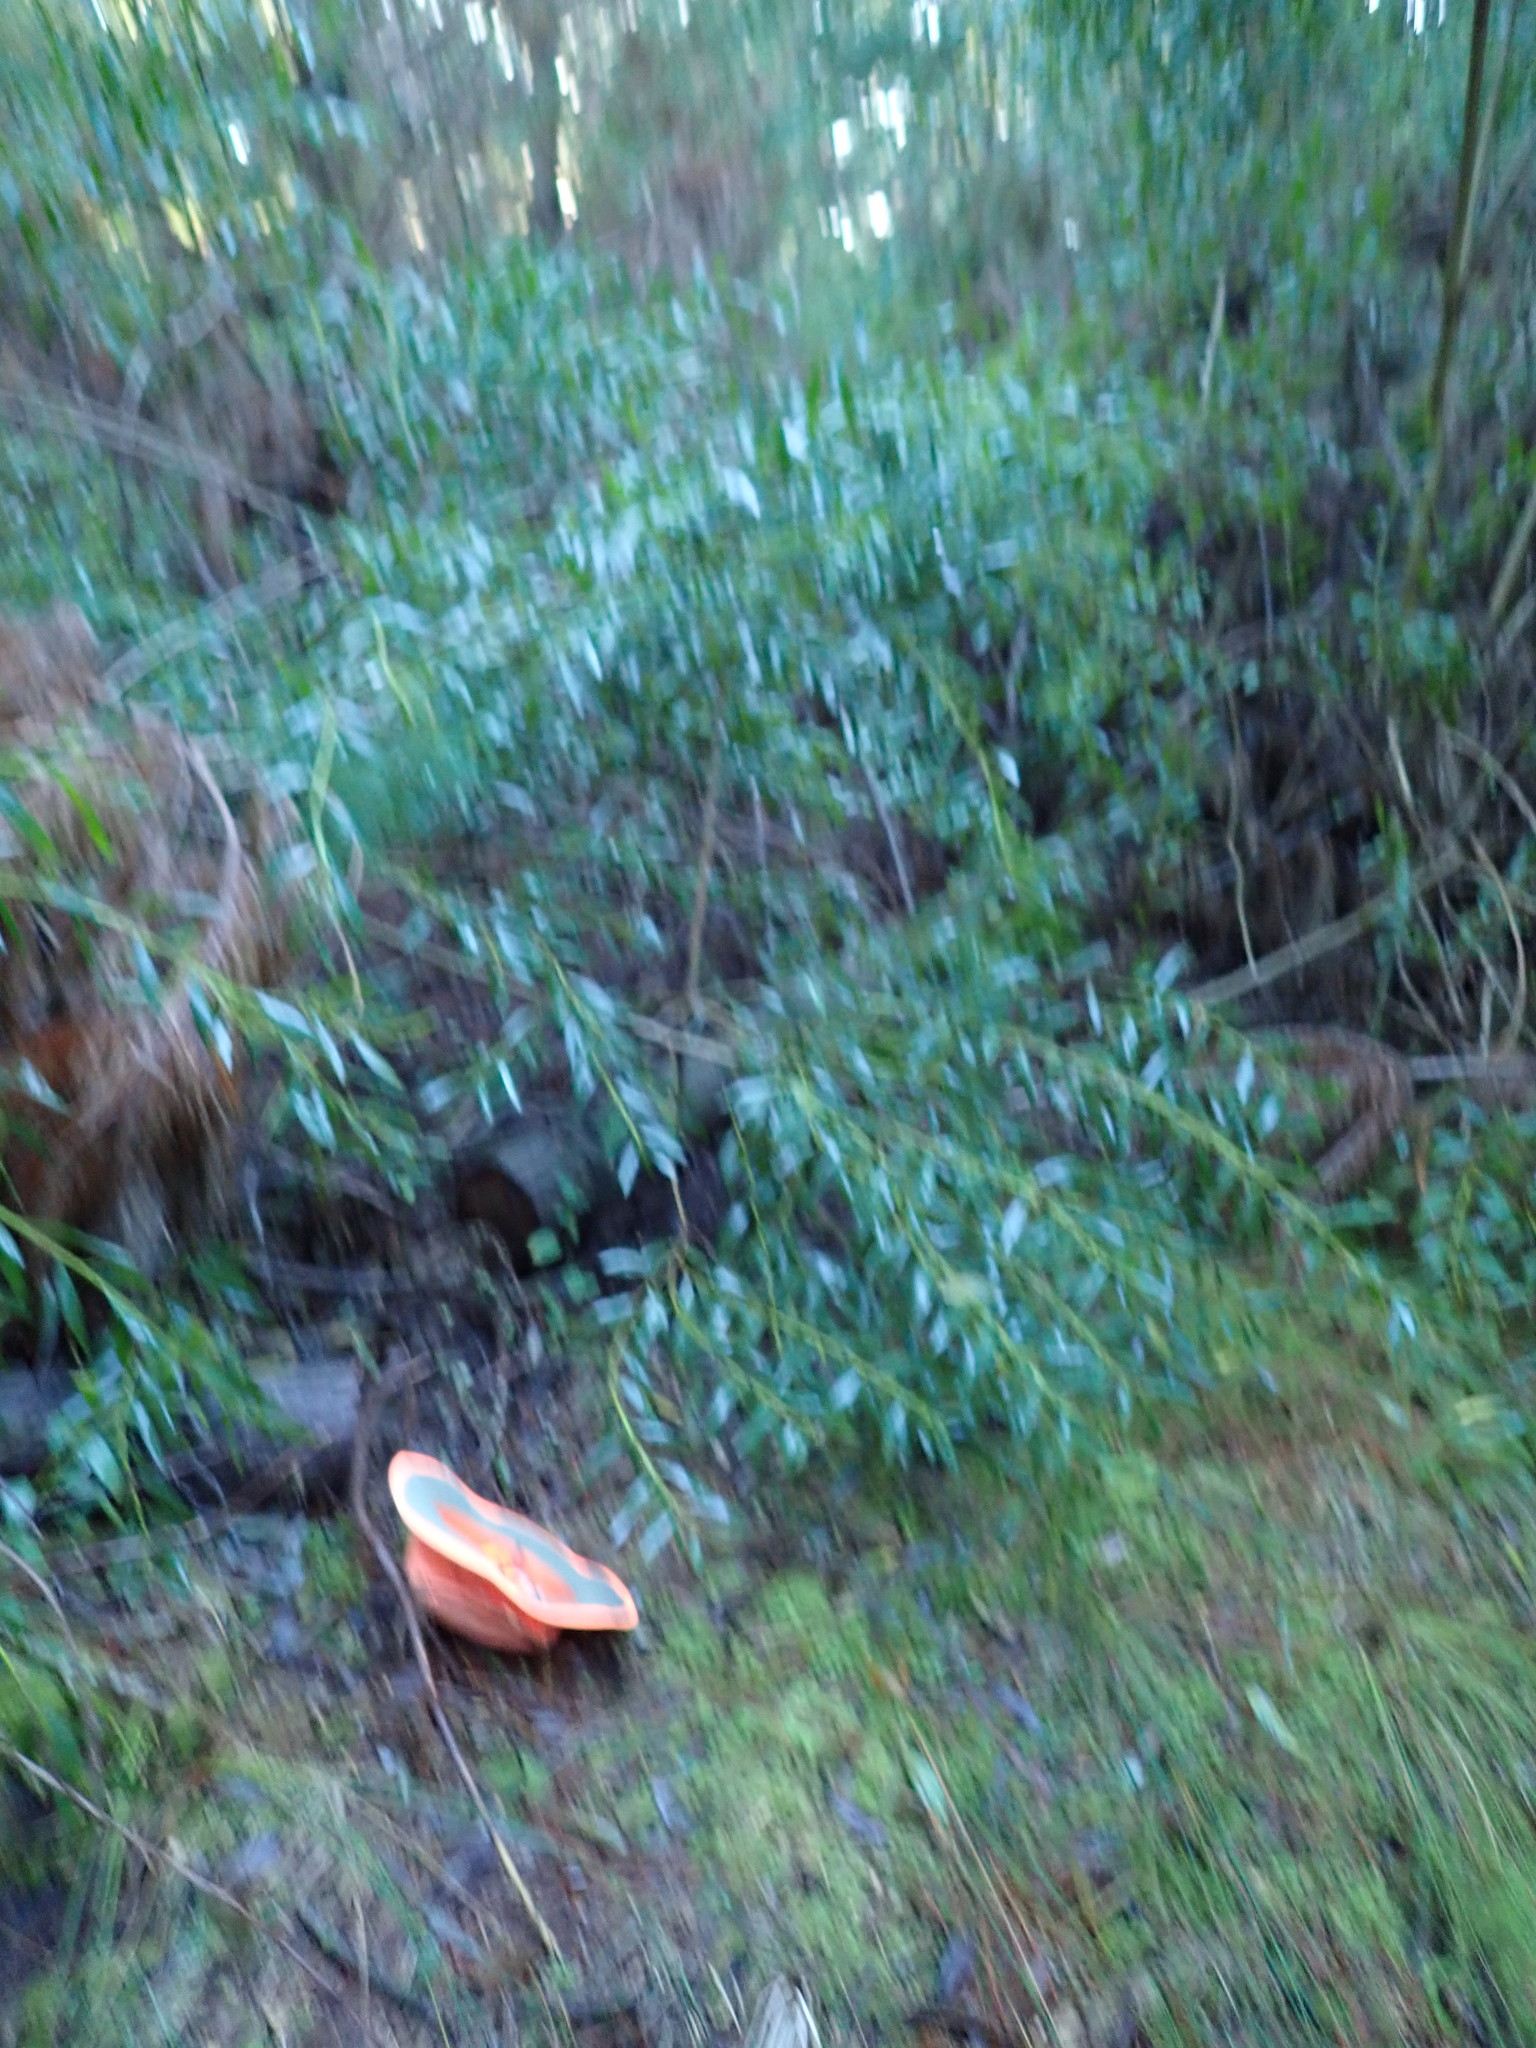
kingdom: Plantae
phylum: Tracheophyta
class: Magnoliopsida
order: Caryophyllales
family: Polygonaceae
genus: Muehlenbeckia
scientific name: Muehlenbeckia complexa
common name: Wireplant
